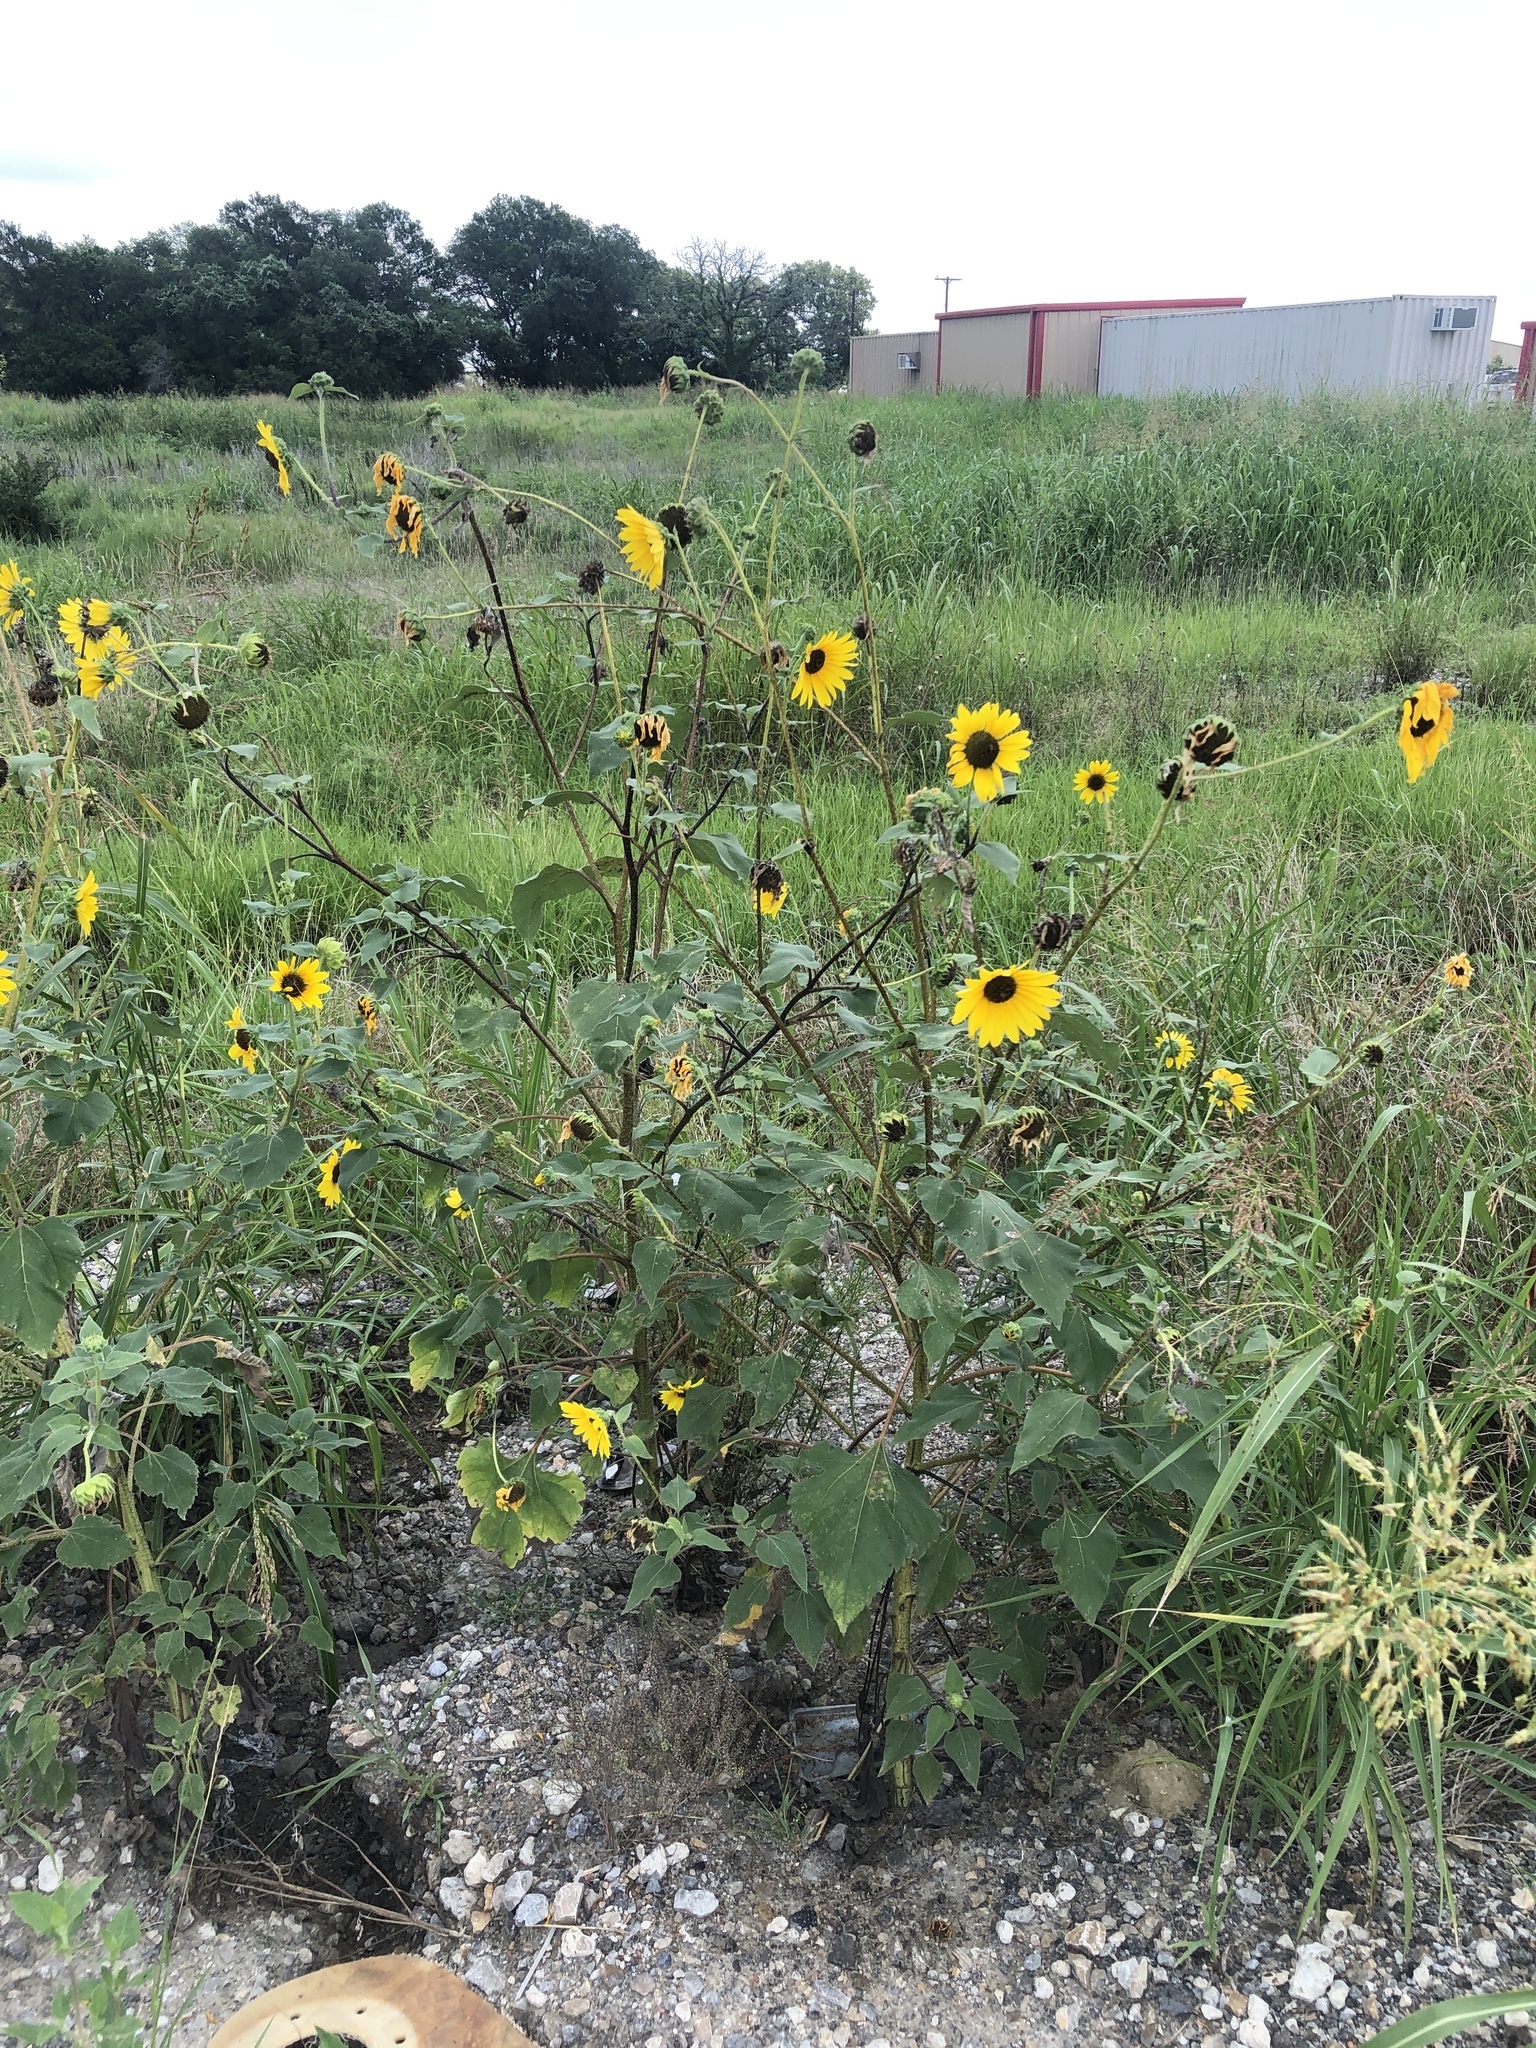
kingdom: Plantae
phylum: Tracheophyta
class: Magnoliopsida
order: Asterales
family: Asteraceae
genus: Helianthus
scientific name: Helianthus annuus
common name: Sunflower
